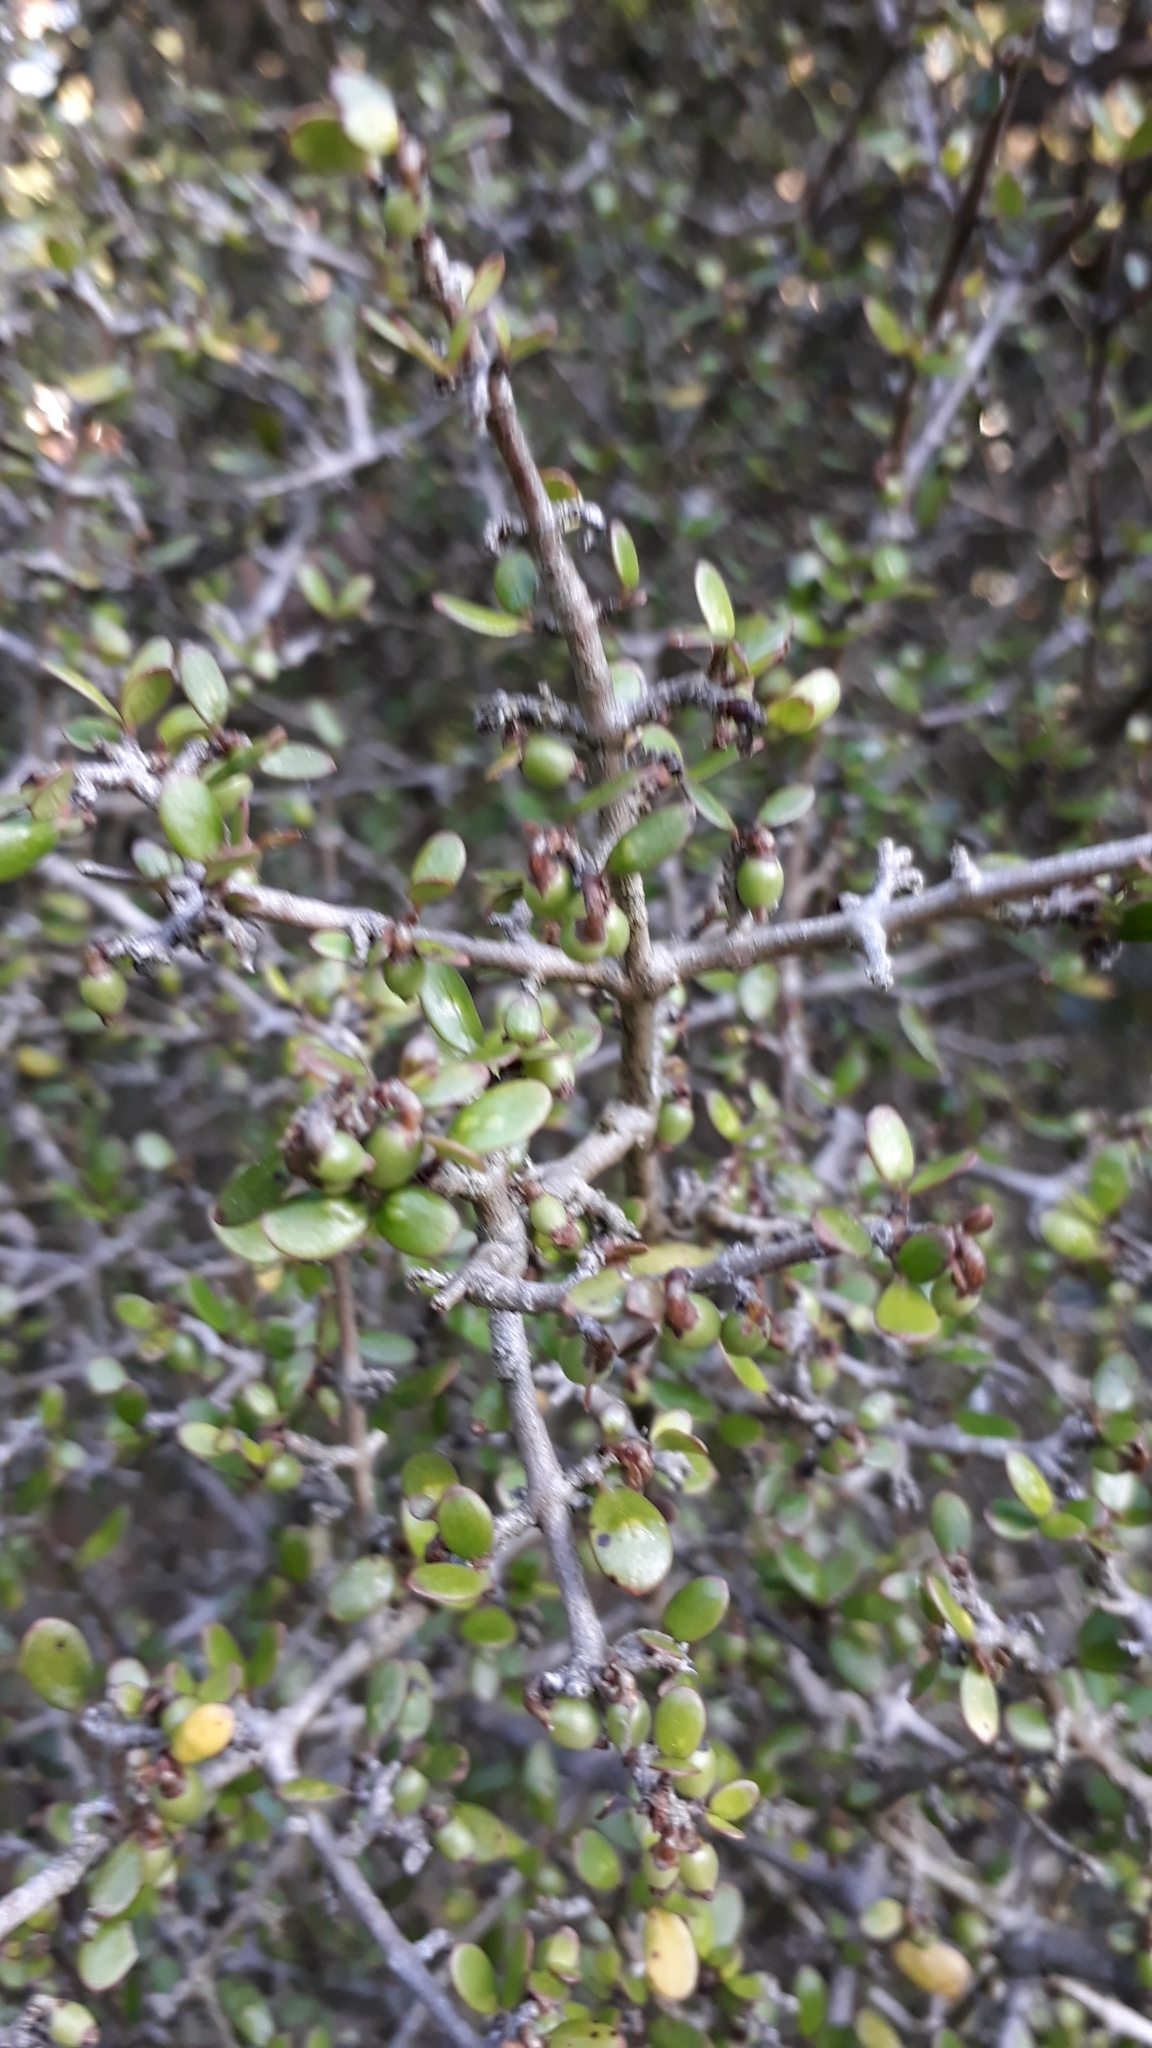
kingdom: Plantae
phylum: Tracheophyta
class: Magnoliopsida
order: Gentianales
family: Rubiaceae
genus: Coprosma
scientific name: Coprosma propinqua
